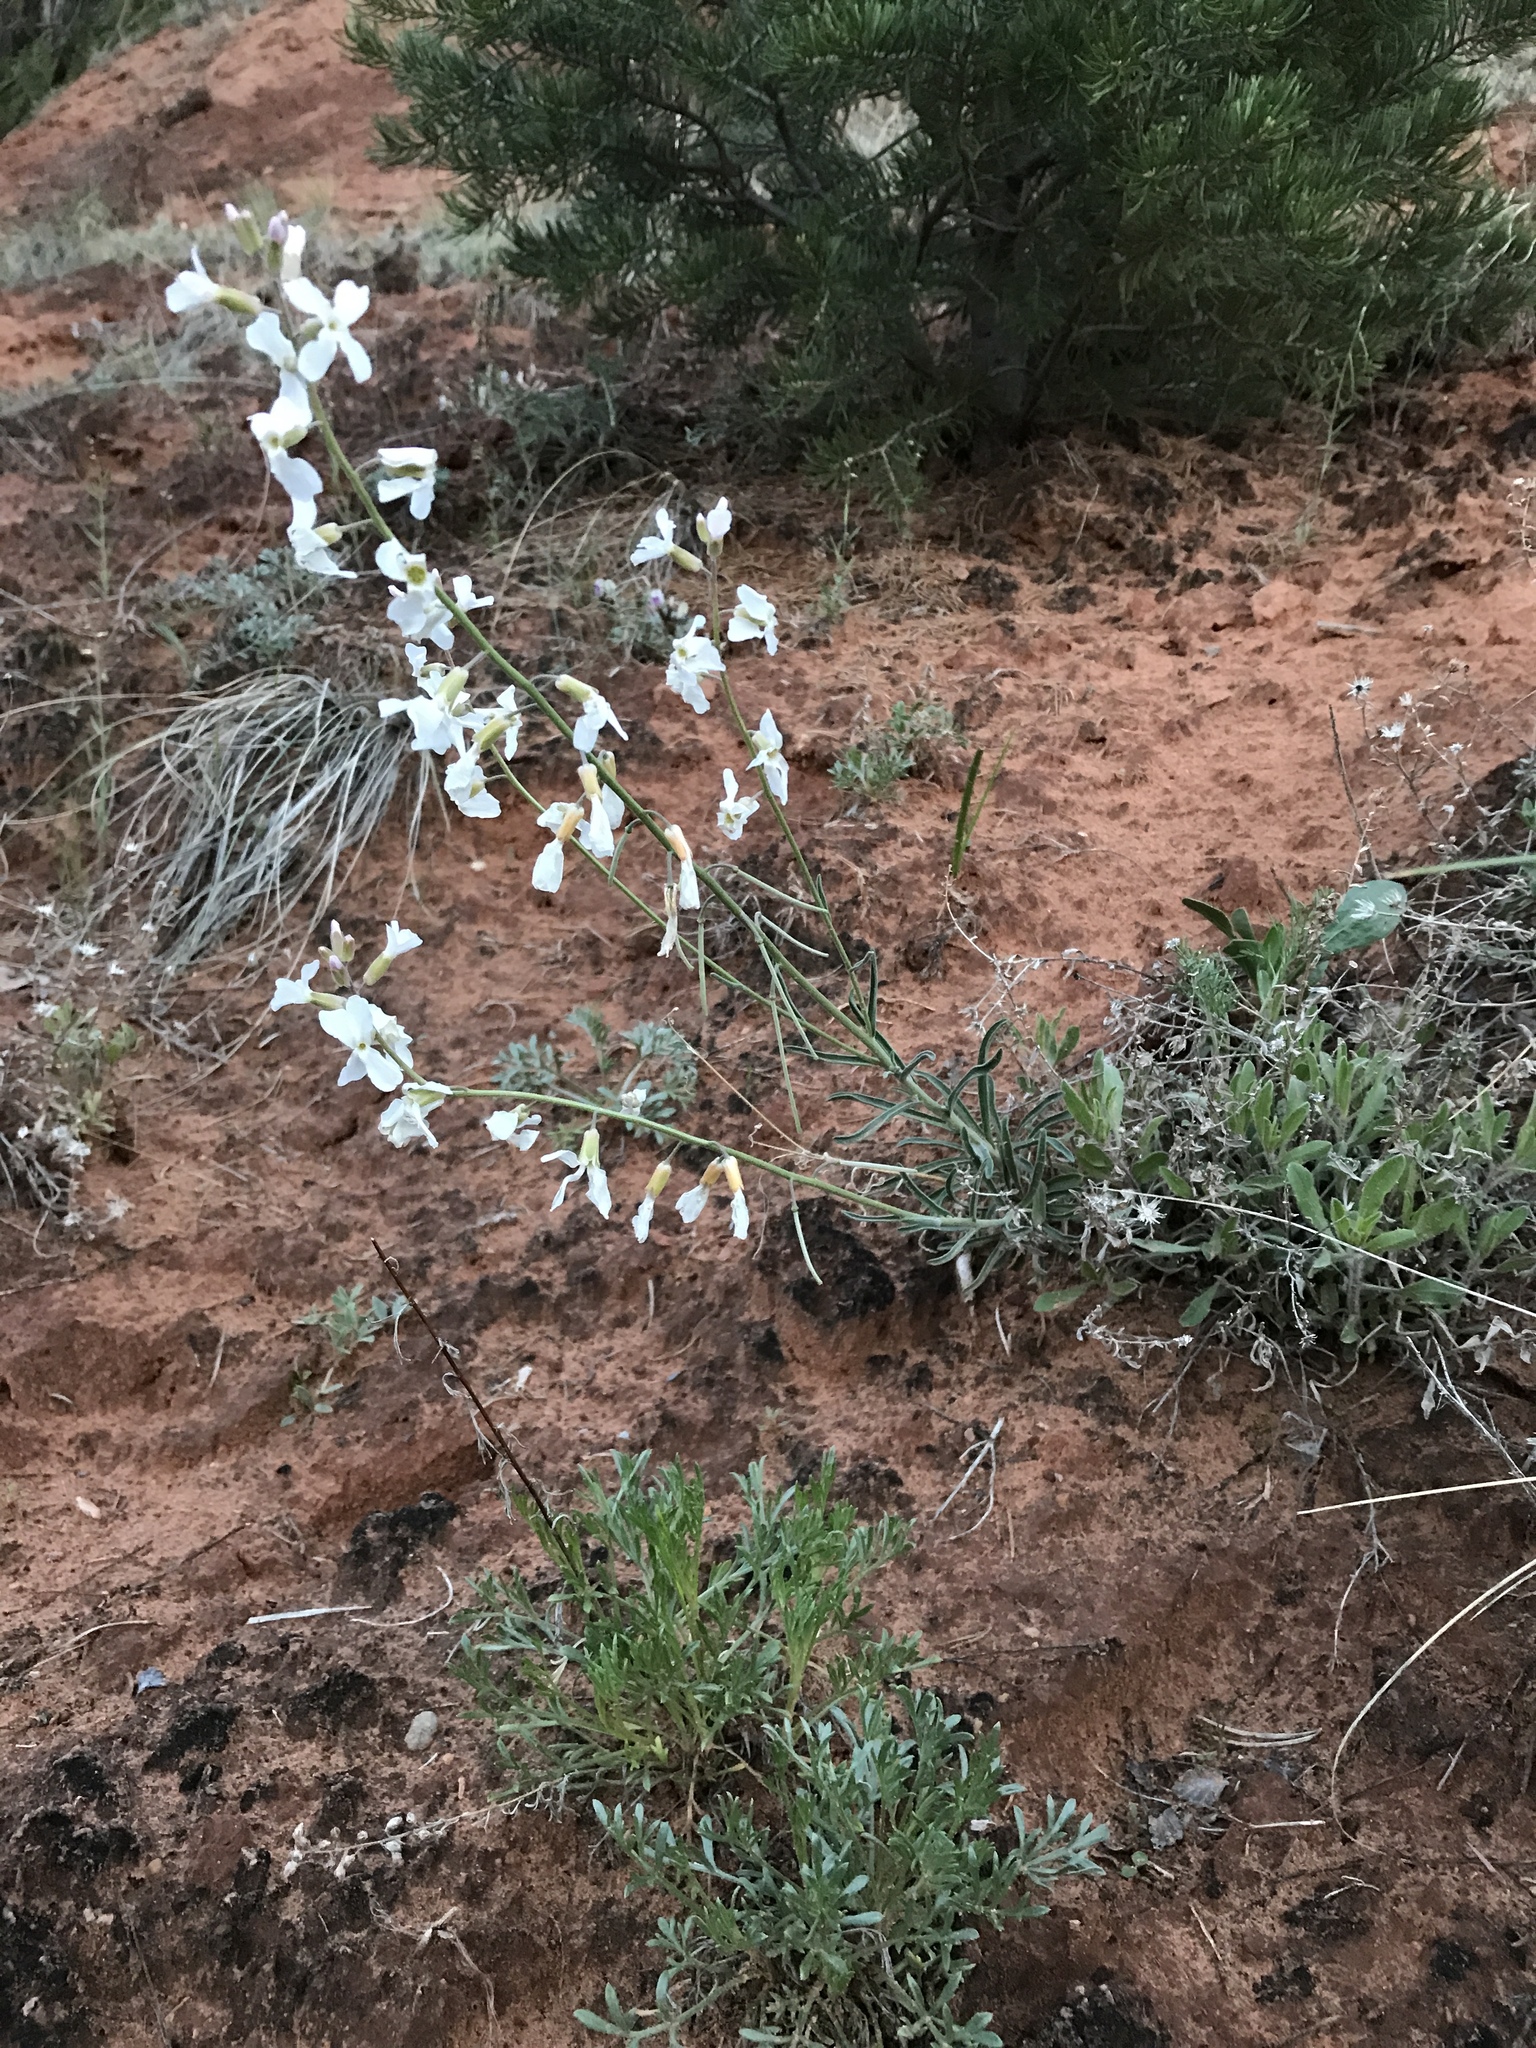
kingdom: Plantae
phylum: Tracheophyta
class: Magnoliopsida
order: Brassicales
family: Brassicaceae
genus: Boechera
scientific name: Boechera formosa
